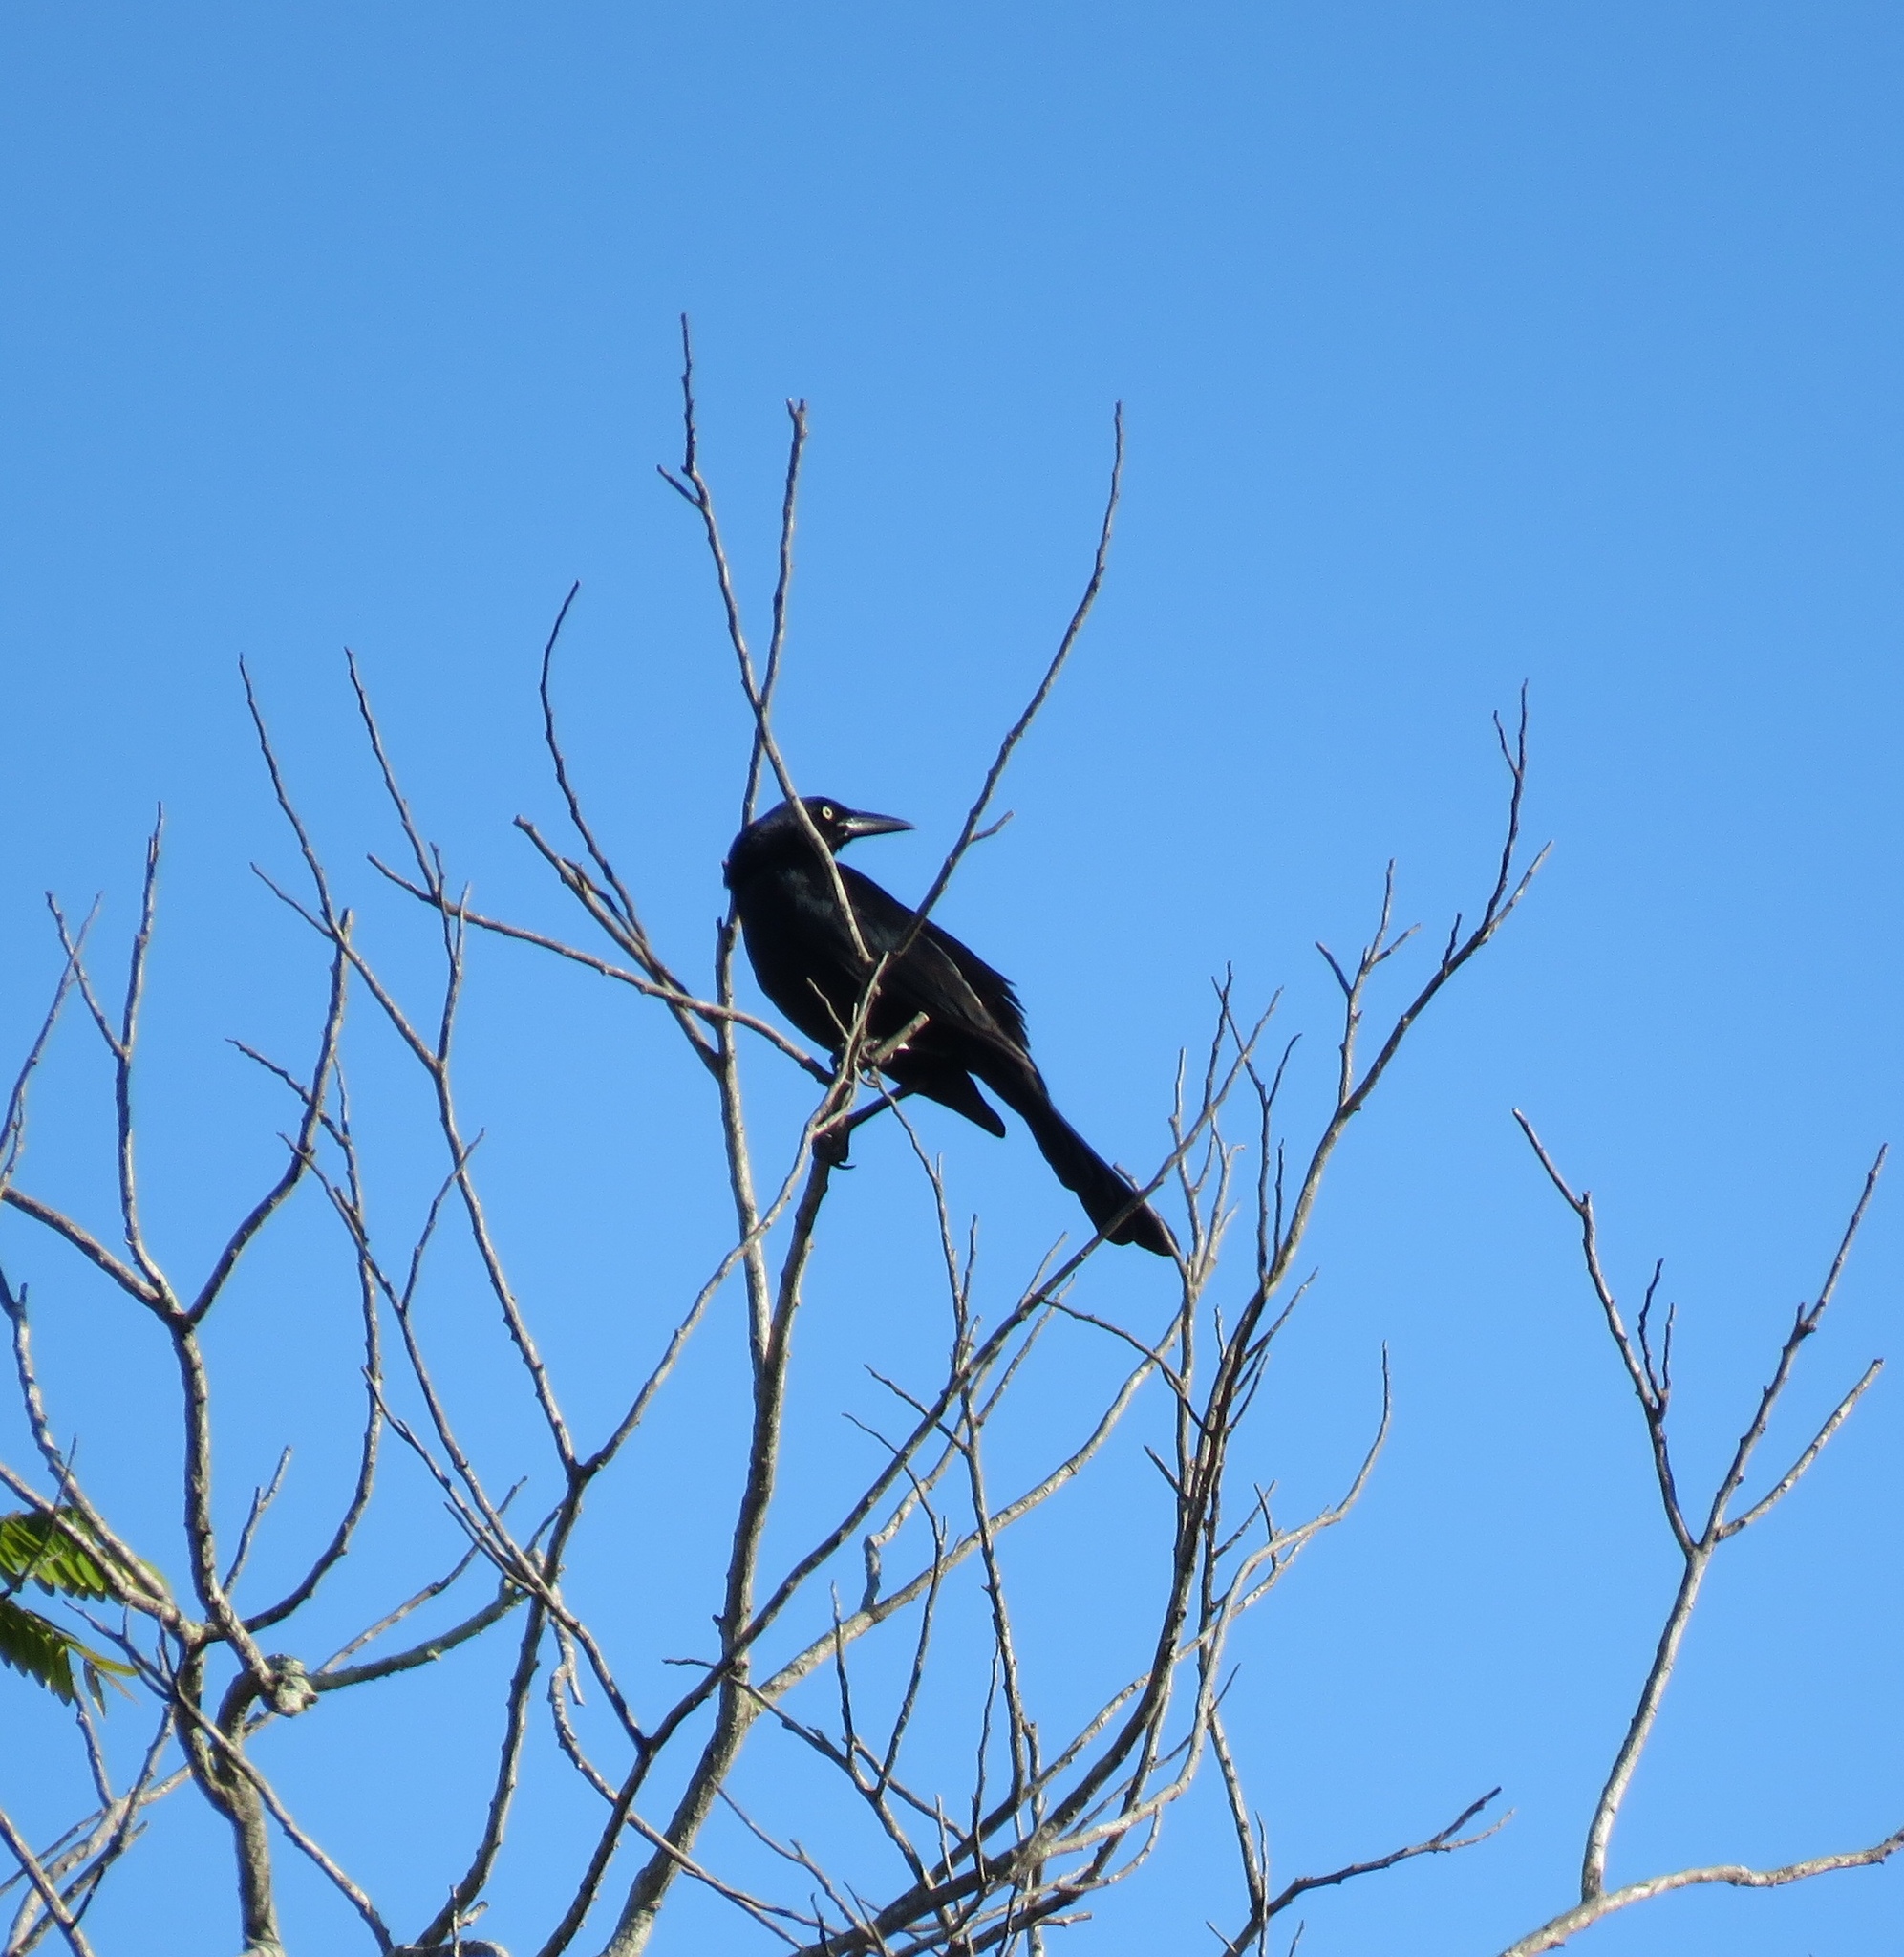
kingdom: Animalia
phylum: Chordata
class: Aves
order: Passeriformes
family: Icteridae
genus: Quiscalus
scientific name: Quiscalus mexicanus
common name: Great-tailed grackle
